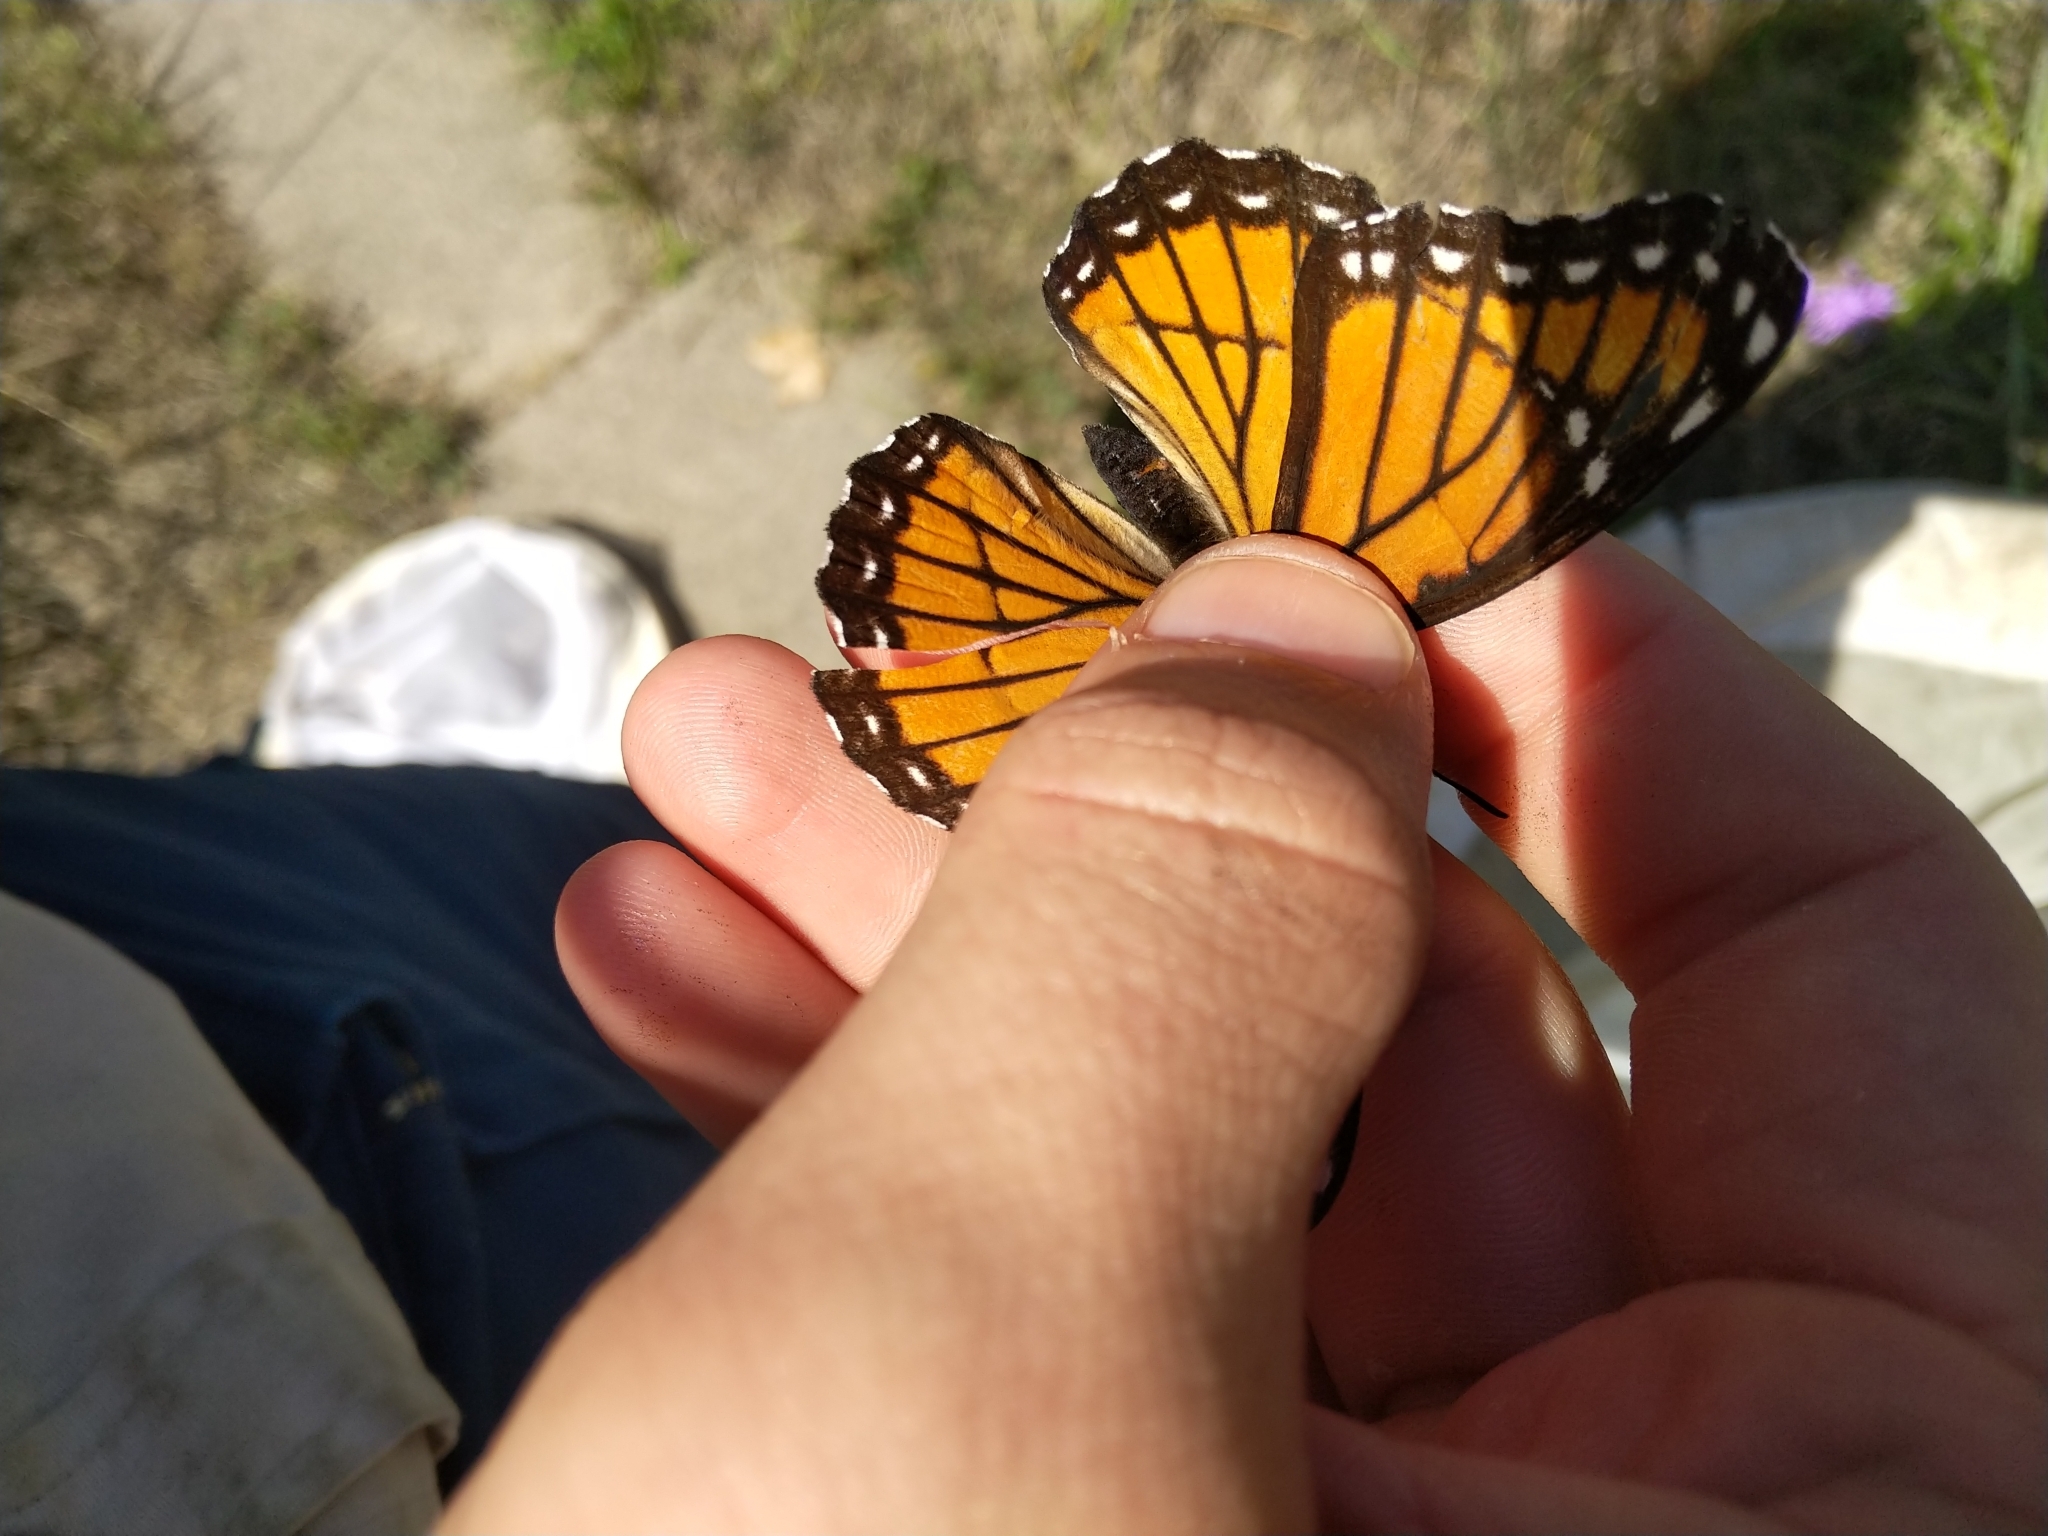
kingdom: Animalia
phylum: Arthropoda
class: Insecta
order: Lepidoptera
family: Nymphalidae
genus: Limenitis
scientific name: Limenitis archippus
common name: Viceroy
